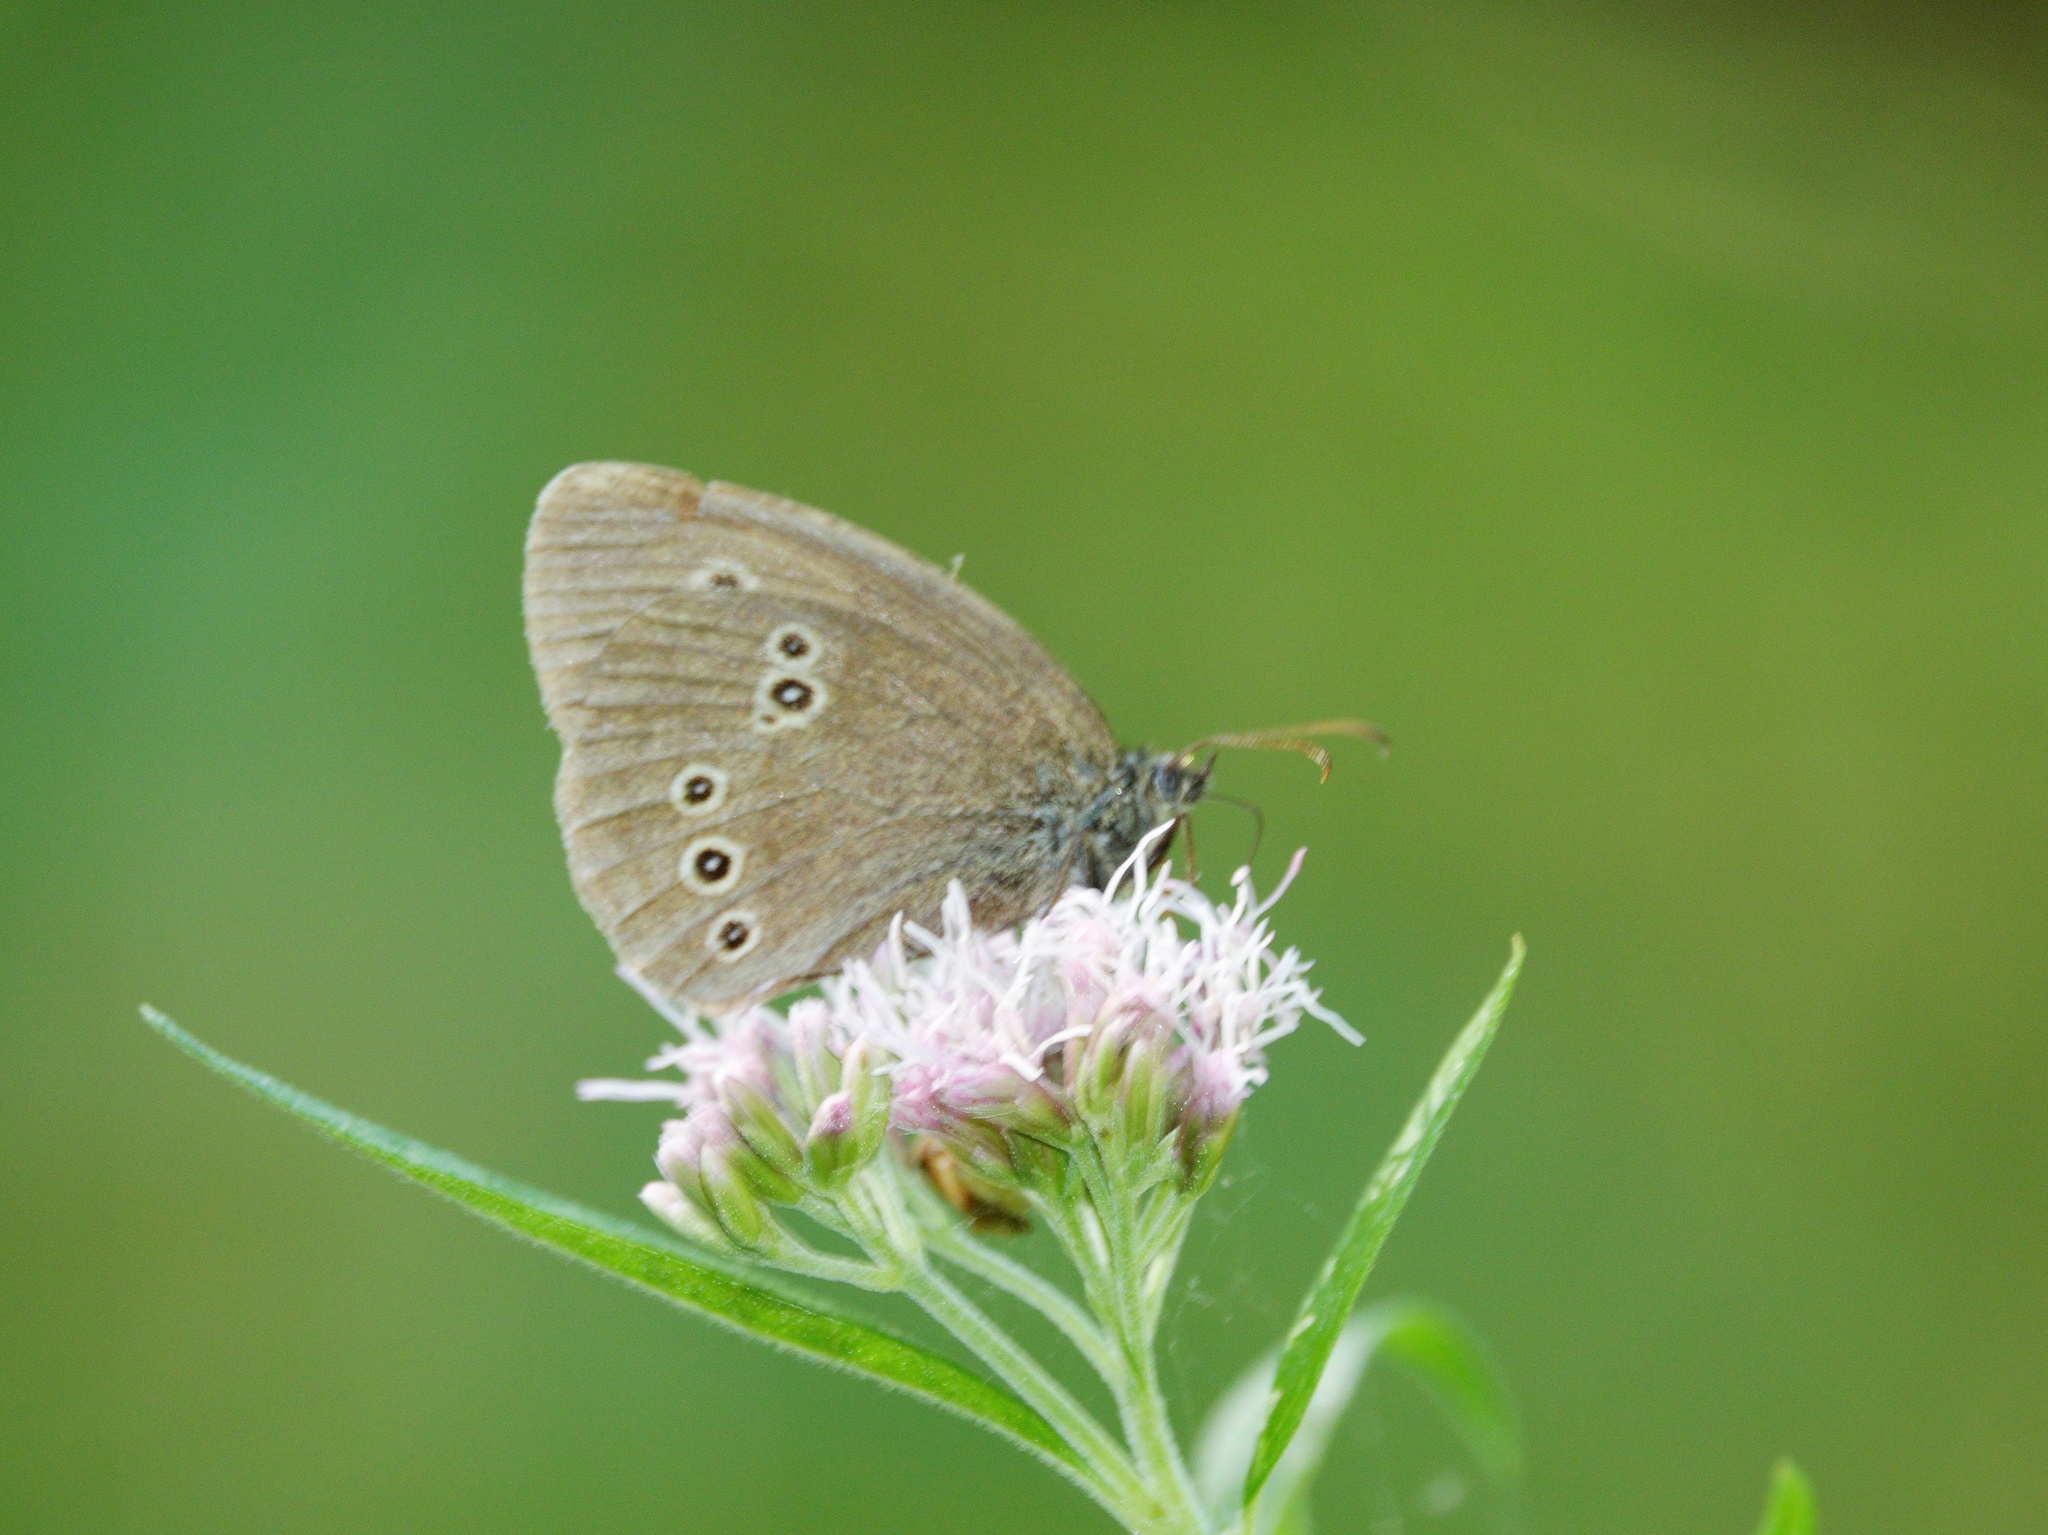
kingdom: Animalia
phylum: Arthropoda
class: Insecta
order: Lepidoptera
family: Nymphalidae
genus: Aphantopus
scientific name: Aphantopus hyperantus
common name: Ringlet
